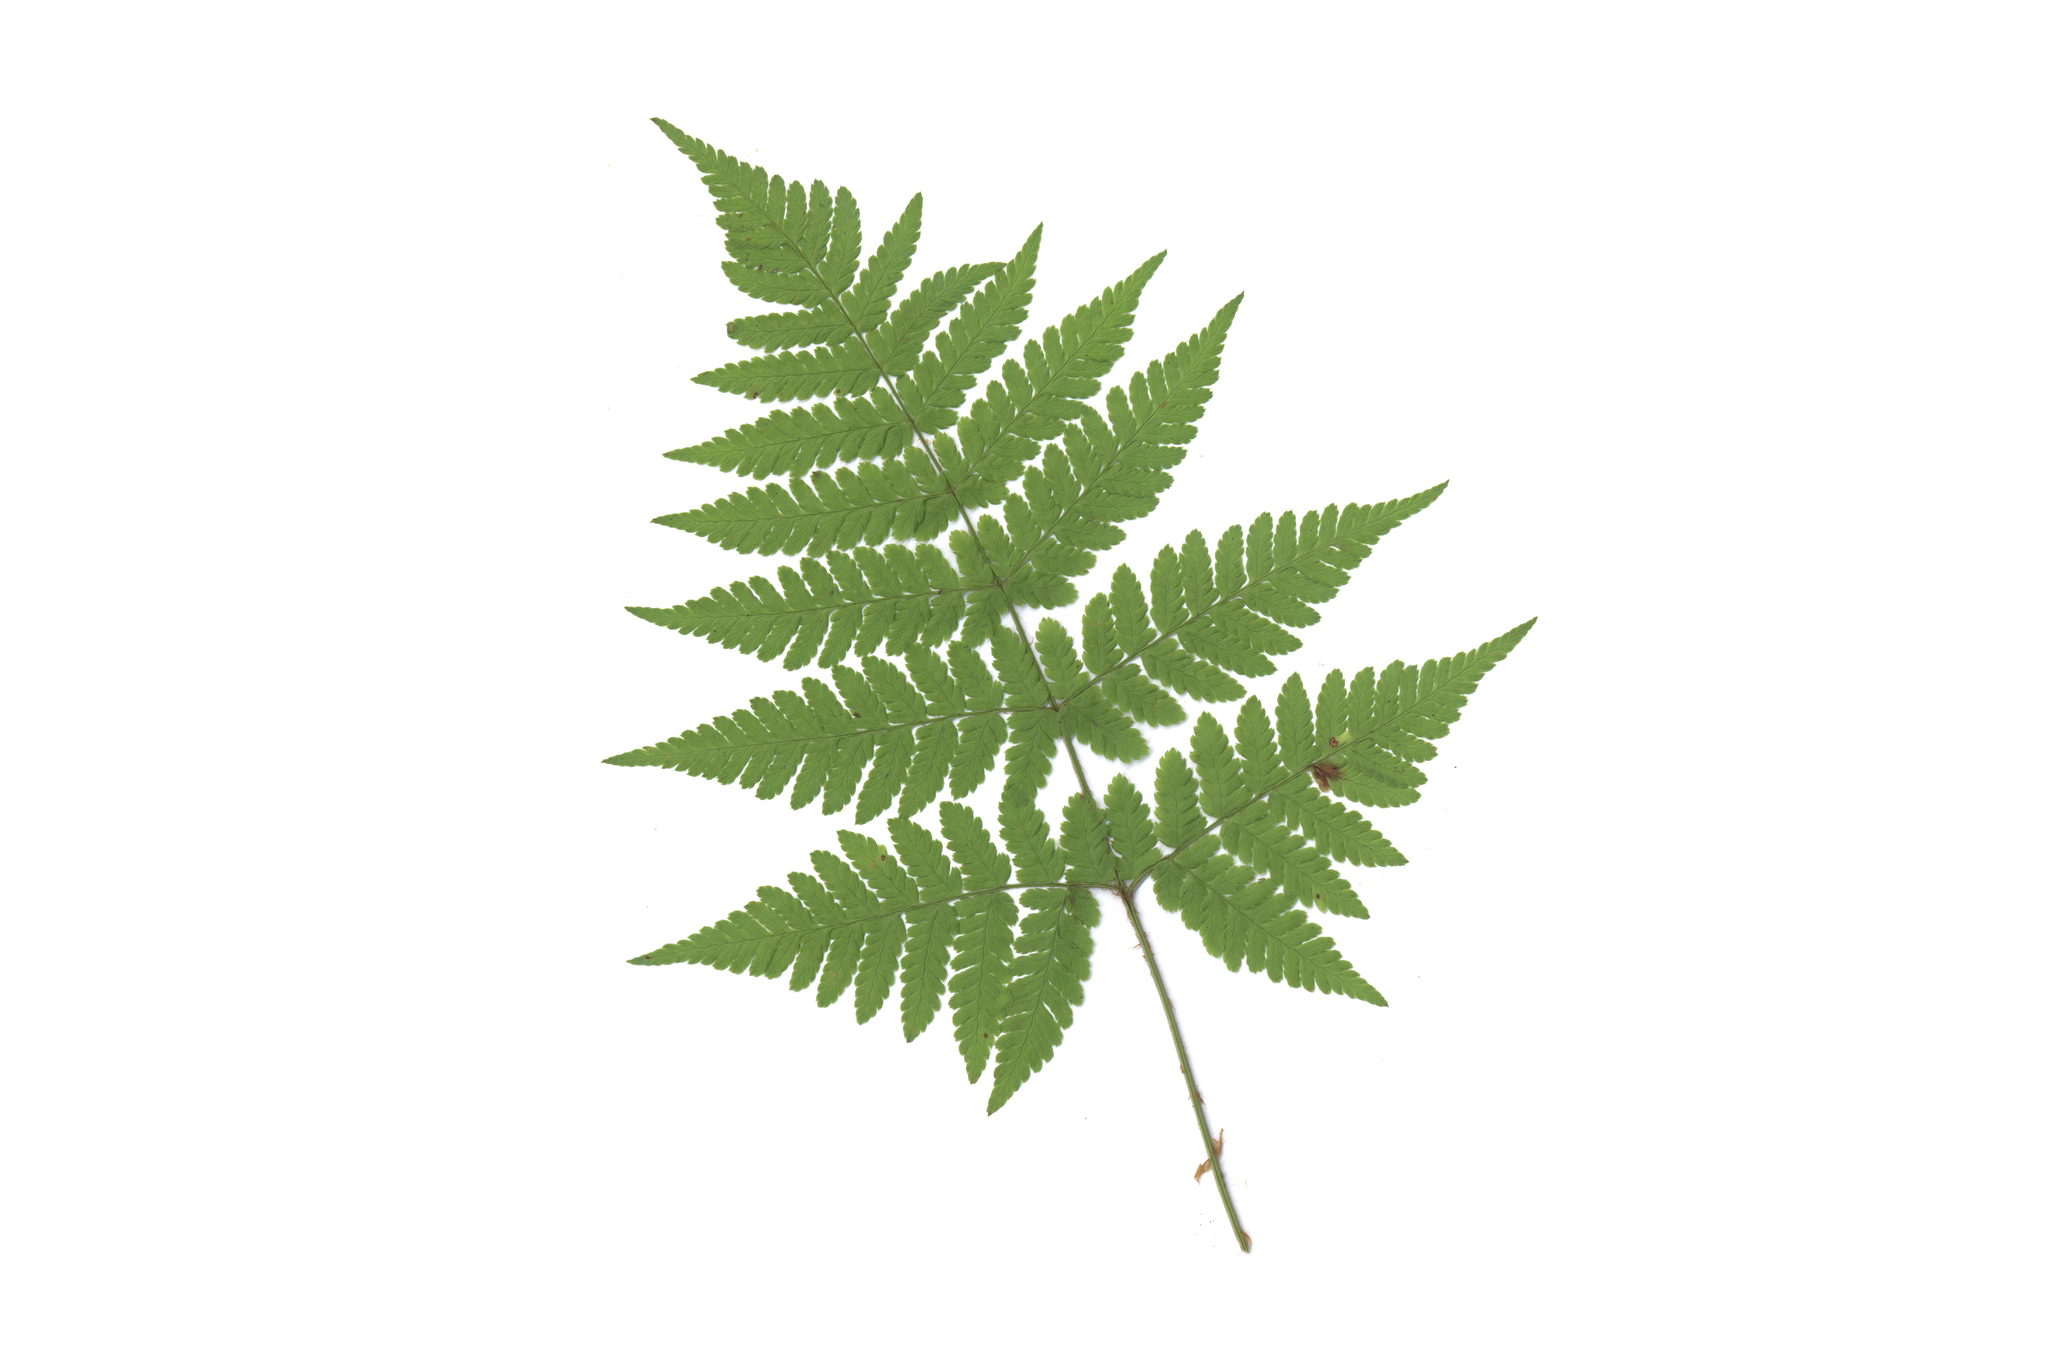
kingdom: Plantae
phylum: Tracheophyta
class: Polypodiopsida
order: Polypodiales
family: Dryopteridaceae
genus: Dryopteris
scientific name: Dryopteris expansa
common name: Northern buckler fern
